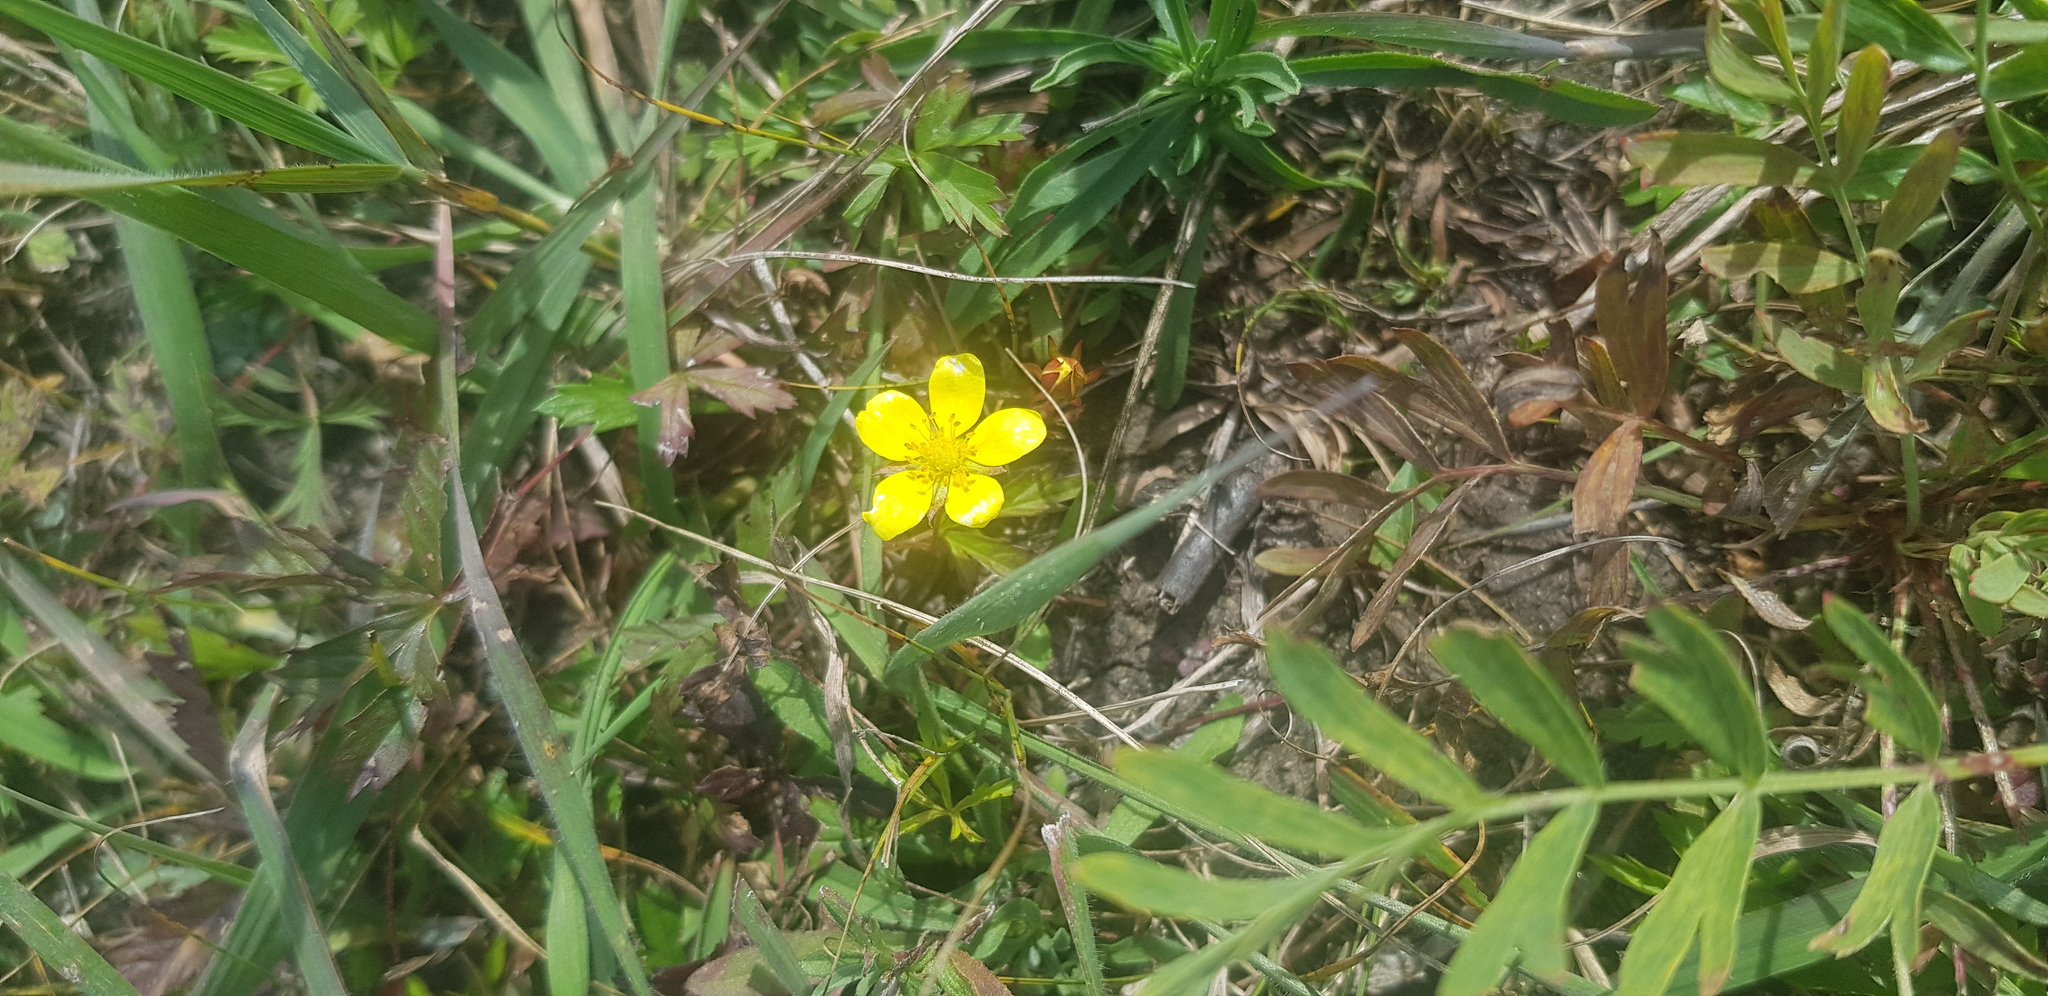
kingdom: Plantae
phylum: Tracheophyta
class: Magnoliopsida
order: Rosales
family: Rosaceae
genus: Sibbaldianthe
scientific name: Sibbaldianthe bifurca
